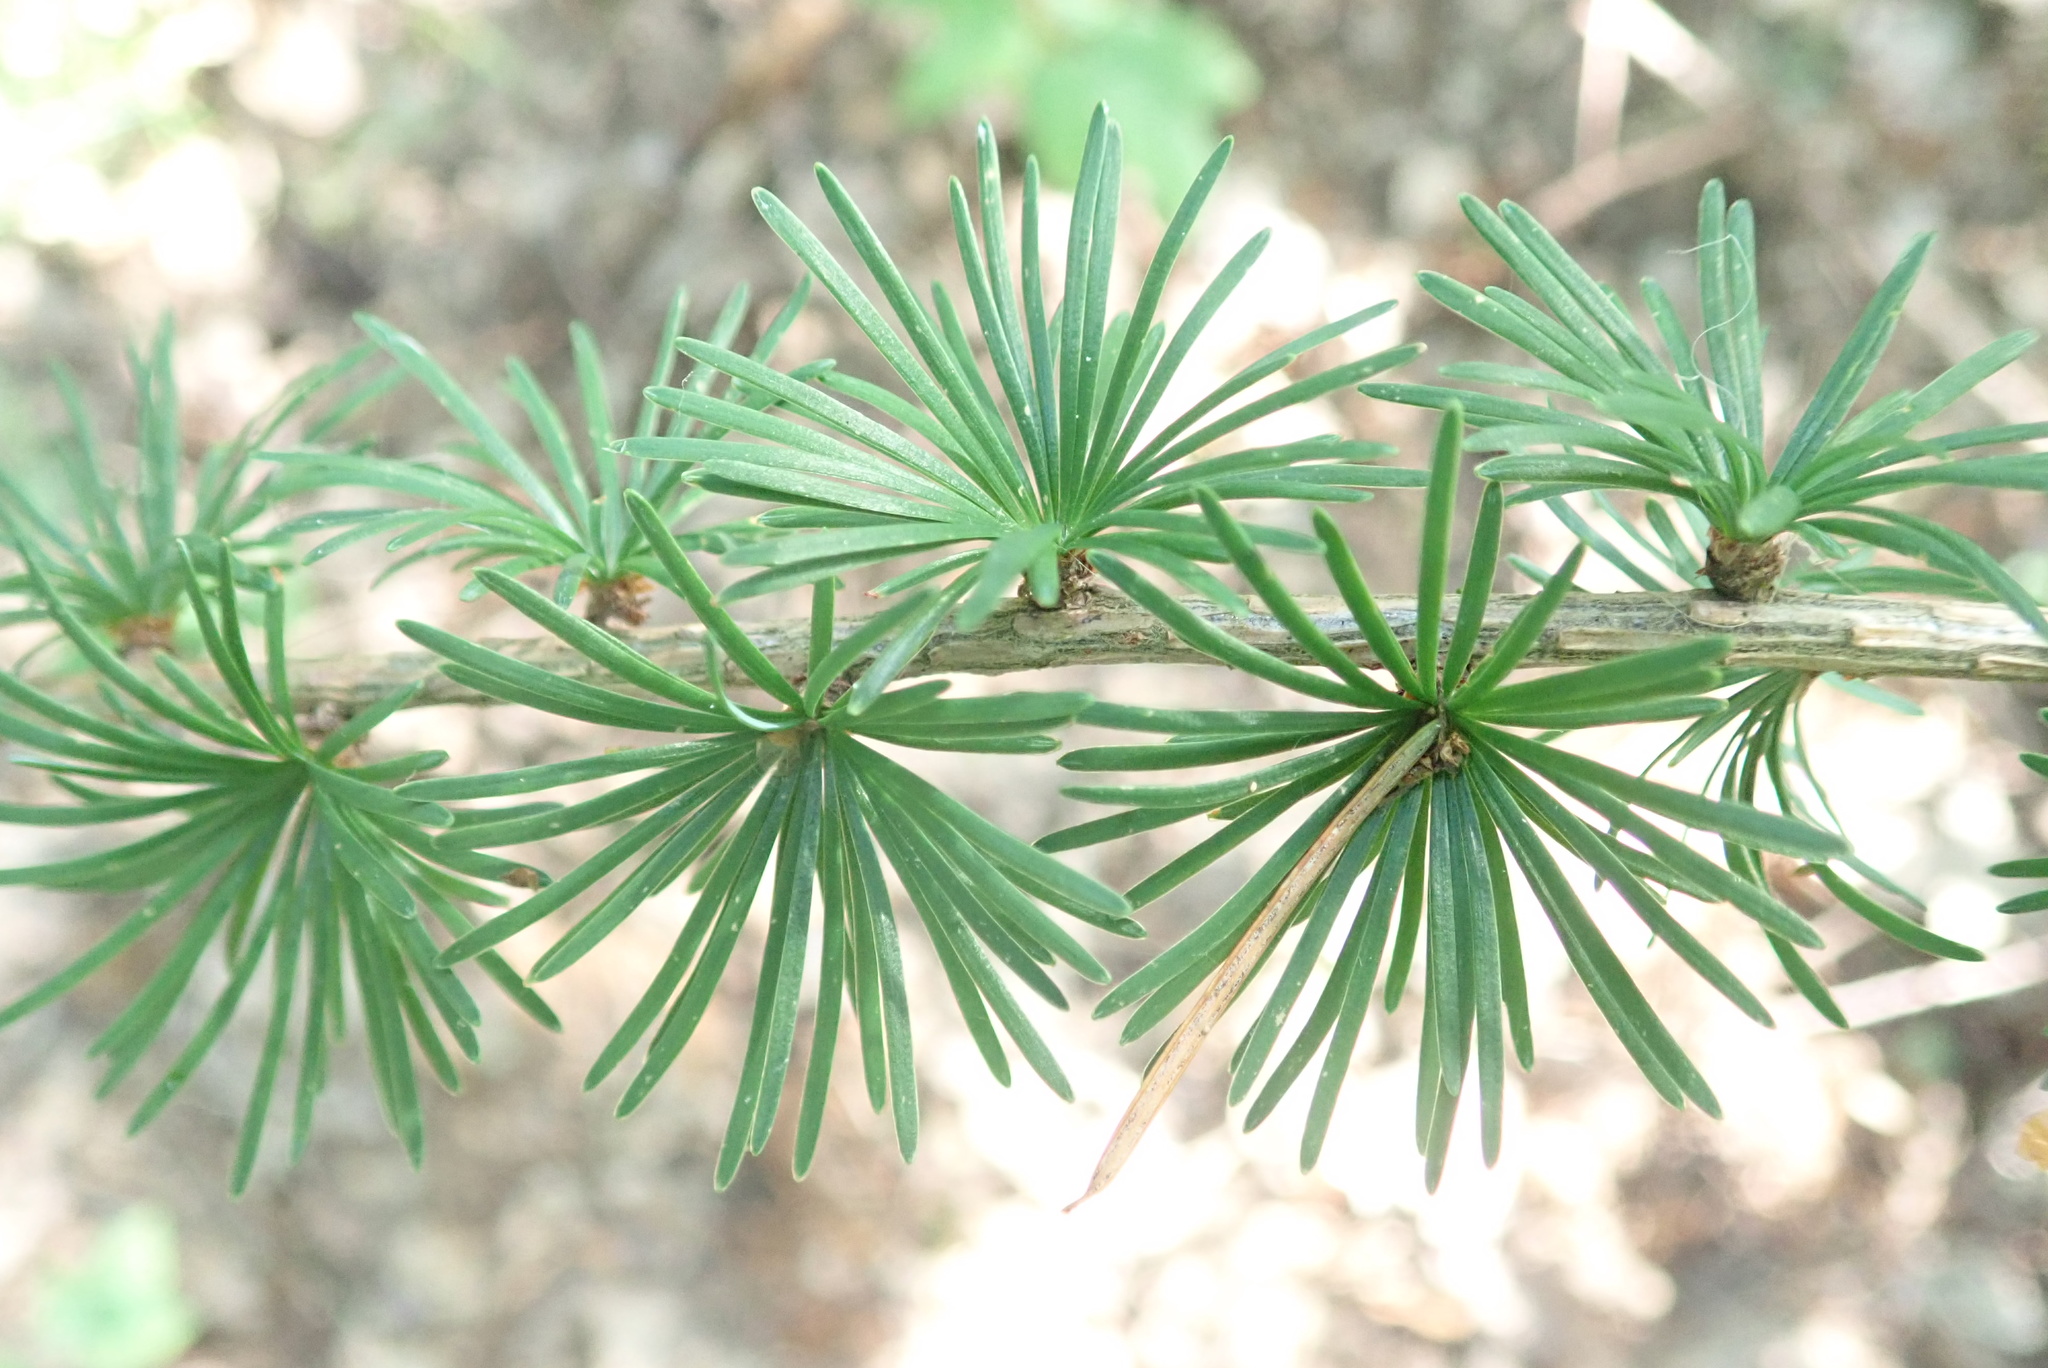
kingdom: Plantae
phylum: Tracheophyta
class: Pinopsida
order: Pinales
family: Pinaceae
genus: Larix
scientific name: Larix decidua
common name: European larch
